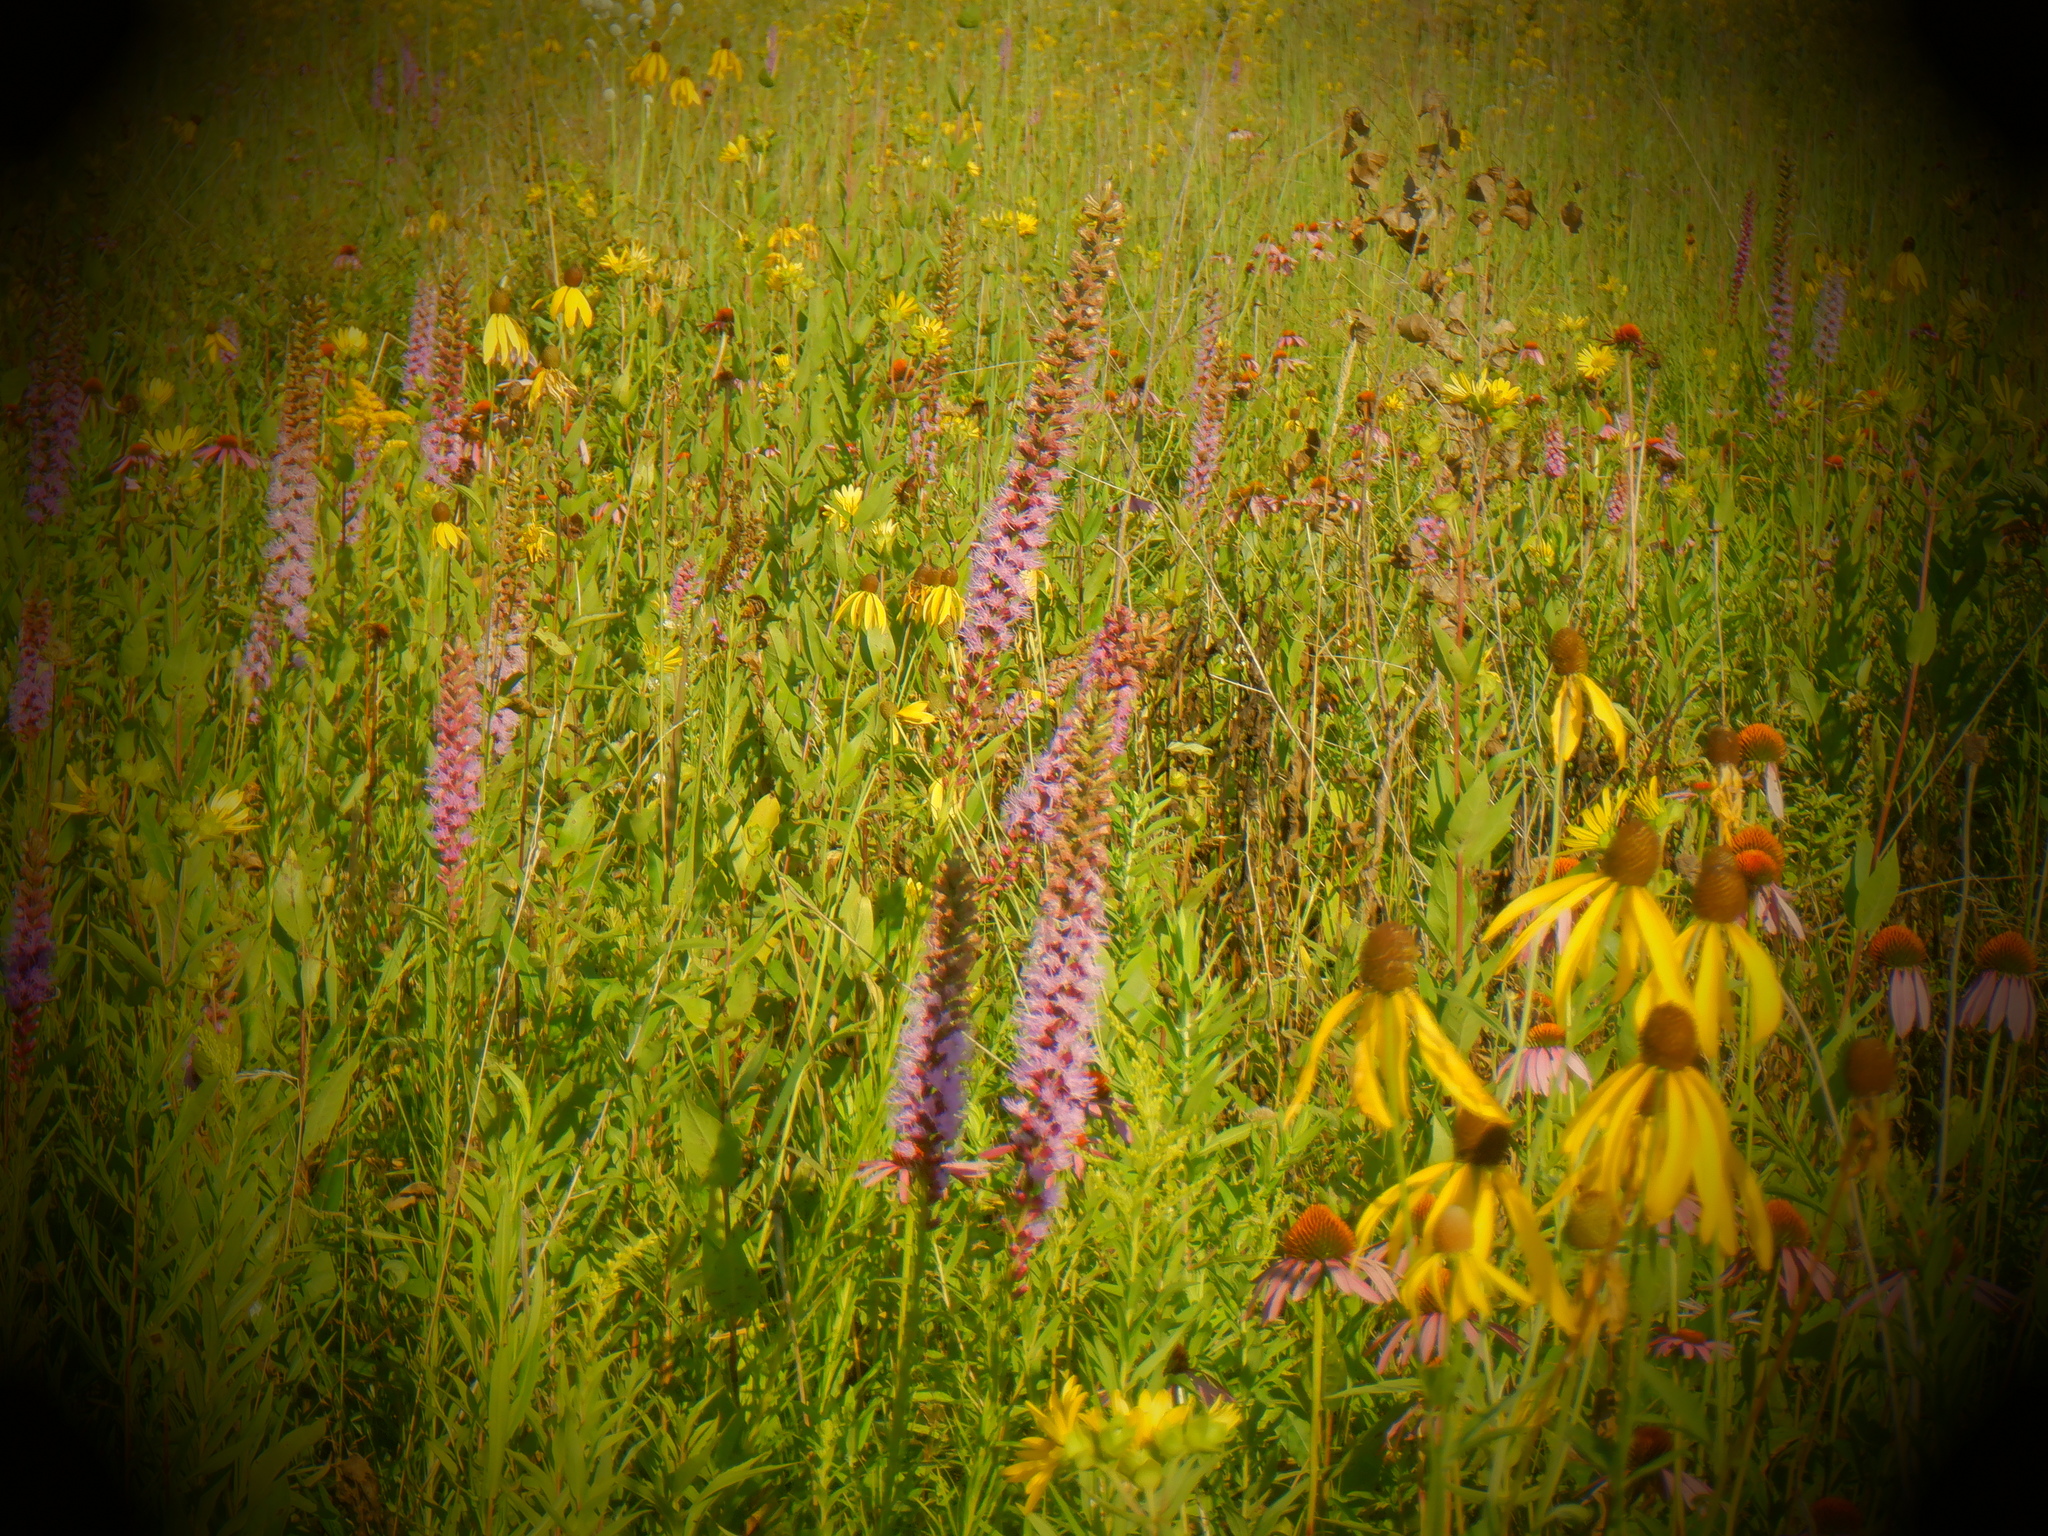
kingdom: Plantae
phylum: Tracheophyta
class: Magnoliopsida
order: Asterales
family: Asteraceae
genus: Liatris
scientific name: Liatris pycnostachya
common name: Cattail gayfeather
